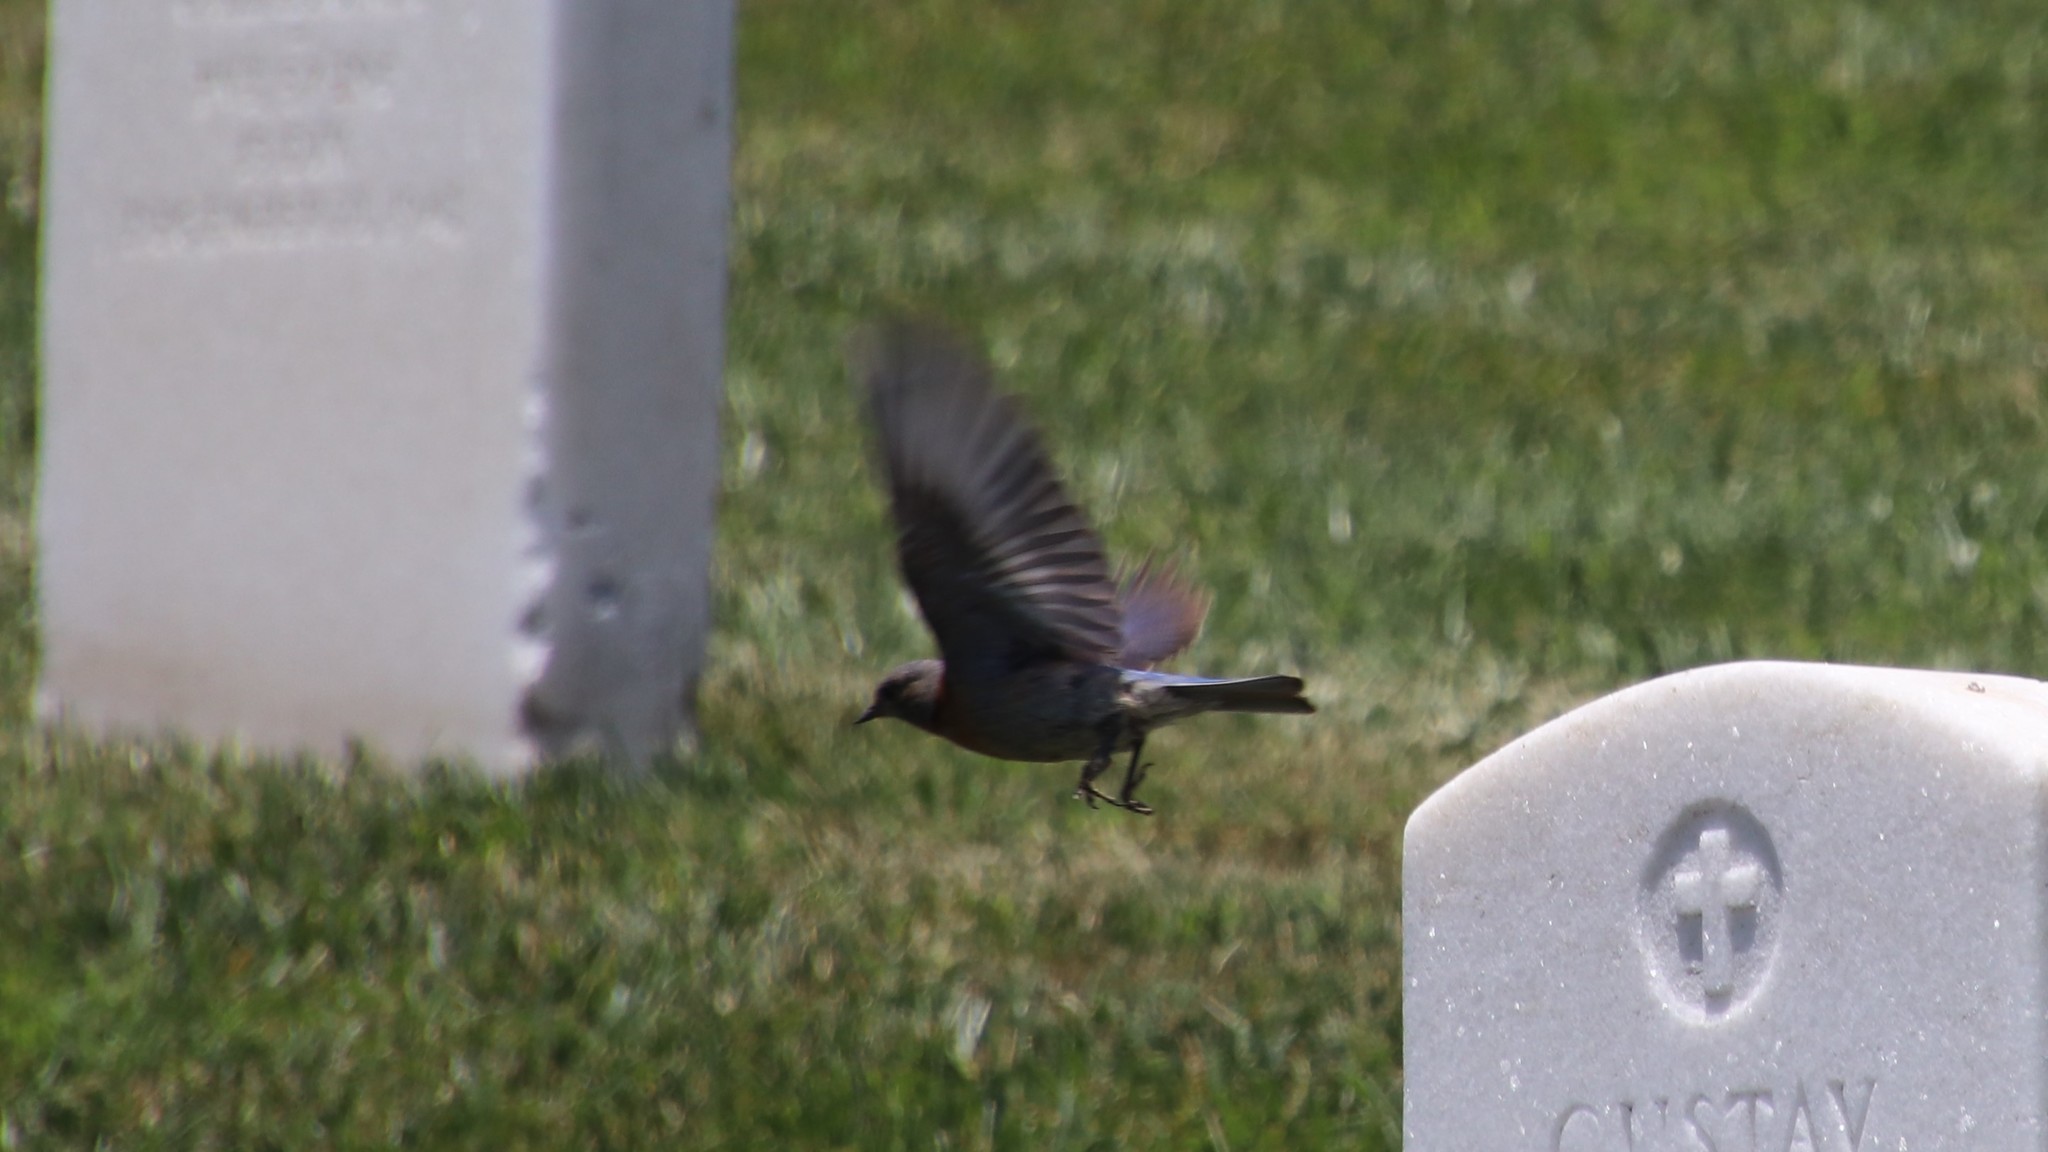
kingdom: Animalia
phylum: Chordata
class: Aves
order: Passeriformes
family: Turdidae
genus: Sialia
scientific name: Sialia mexicana
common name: Western bluebird
